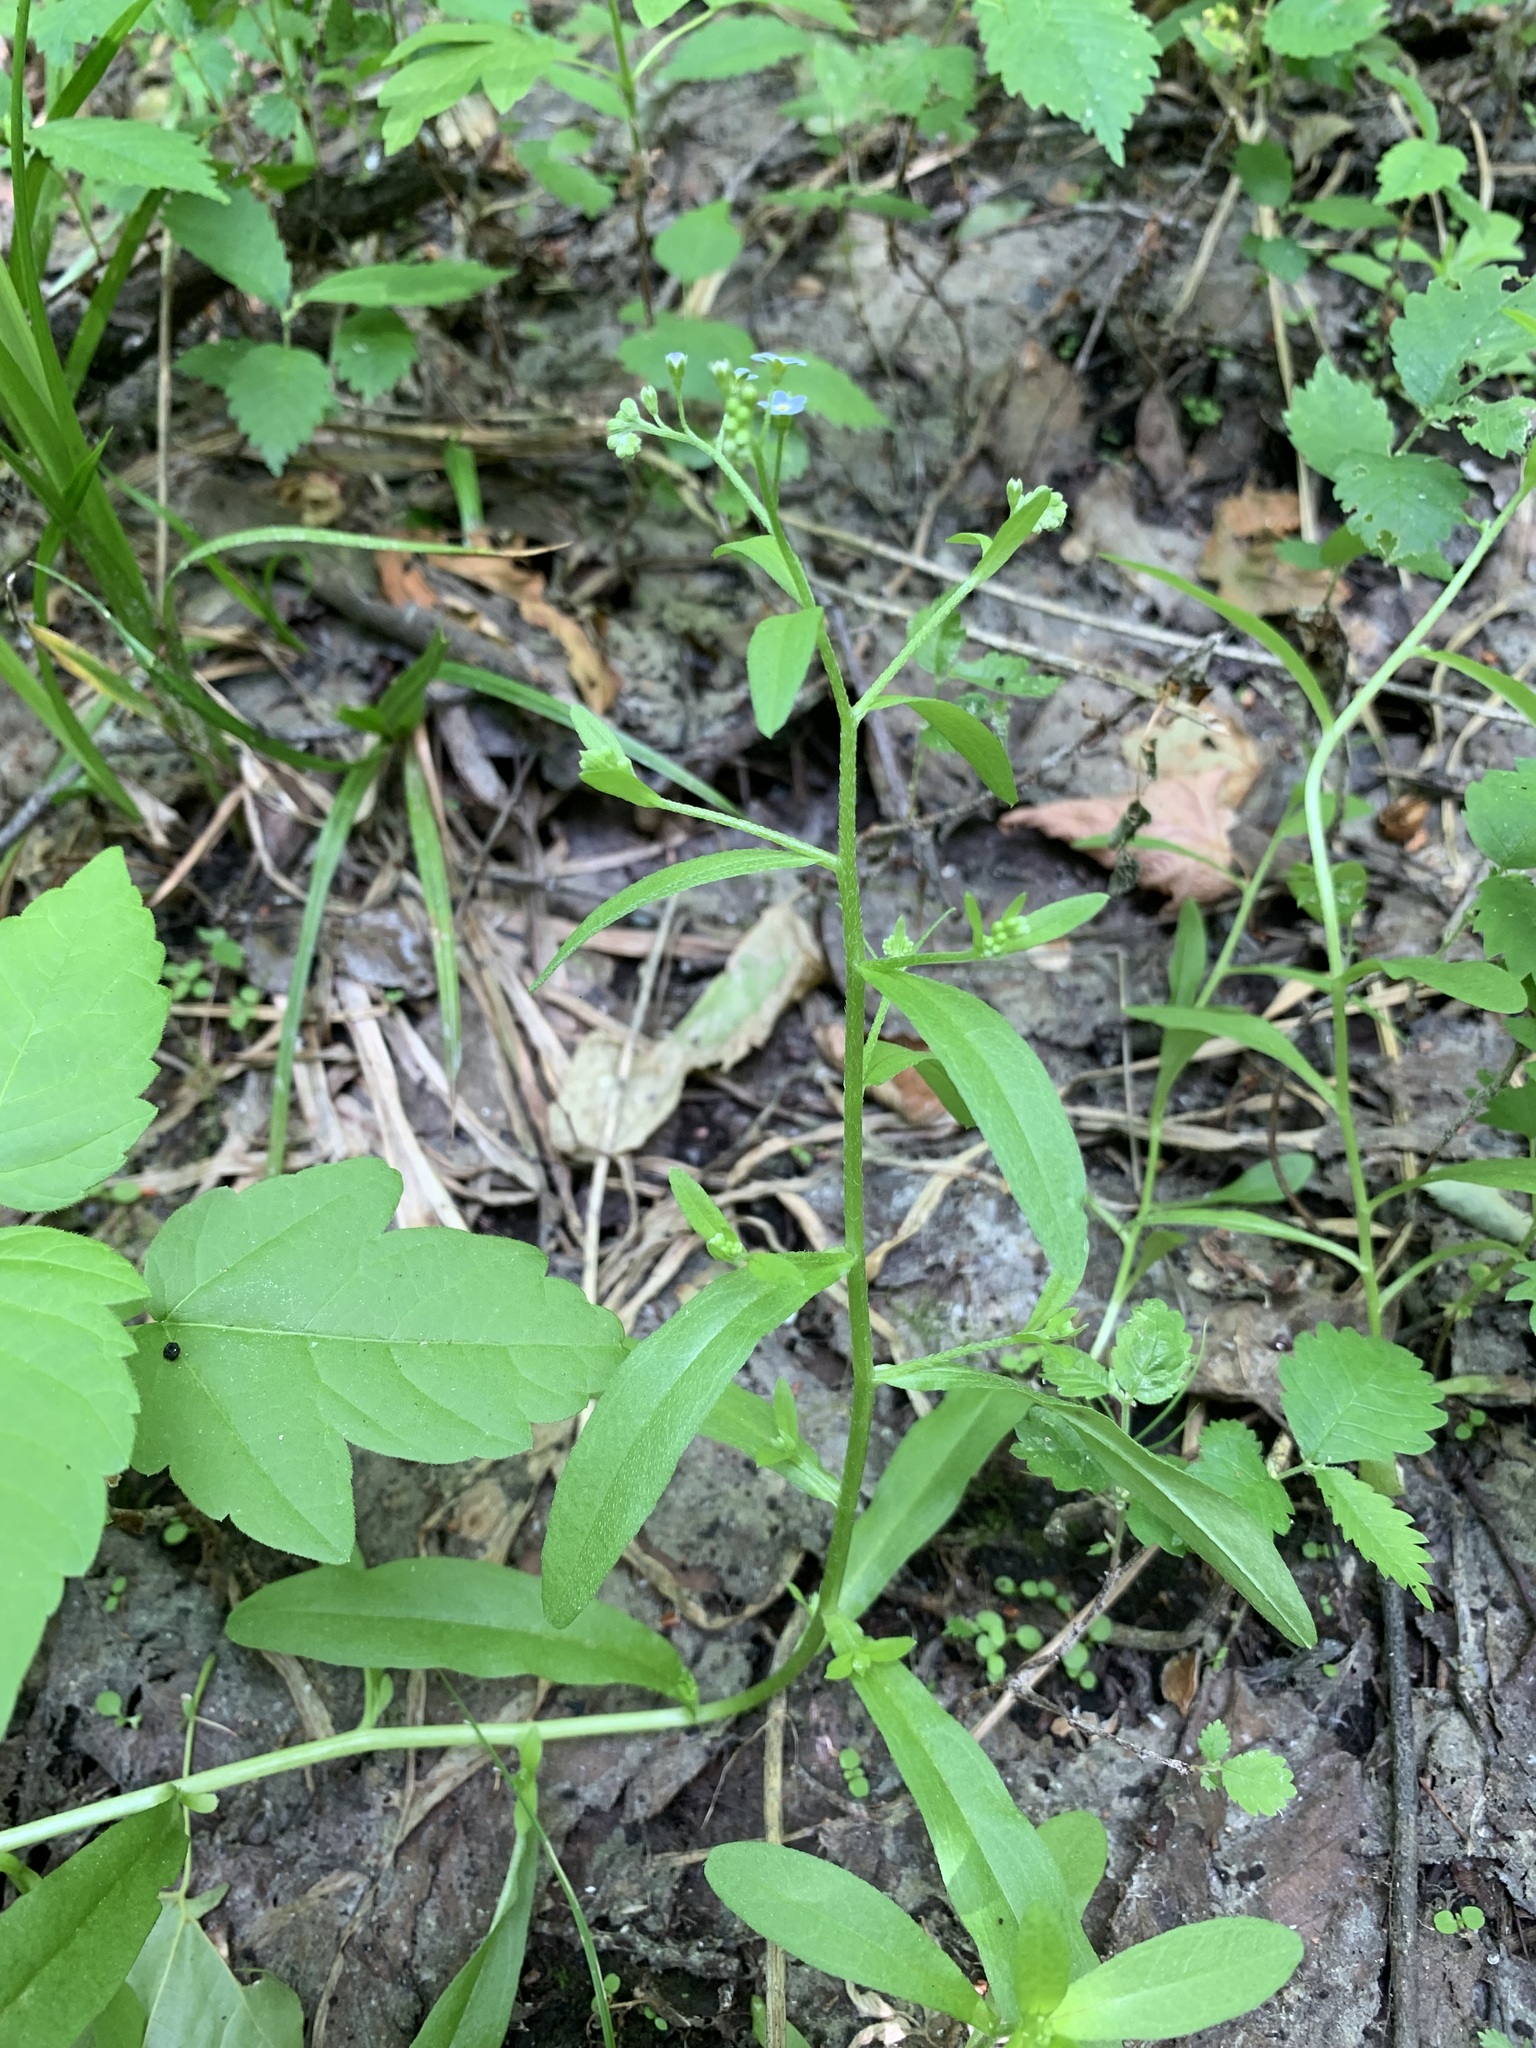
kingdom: Plantae
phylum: Tracheophyta
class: Magnoliopsida
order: Boraginales
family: Boraginaceae
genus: Myosotis
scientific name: Myosotis scorpioides
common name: Water forget-me-not
